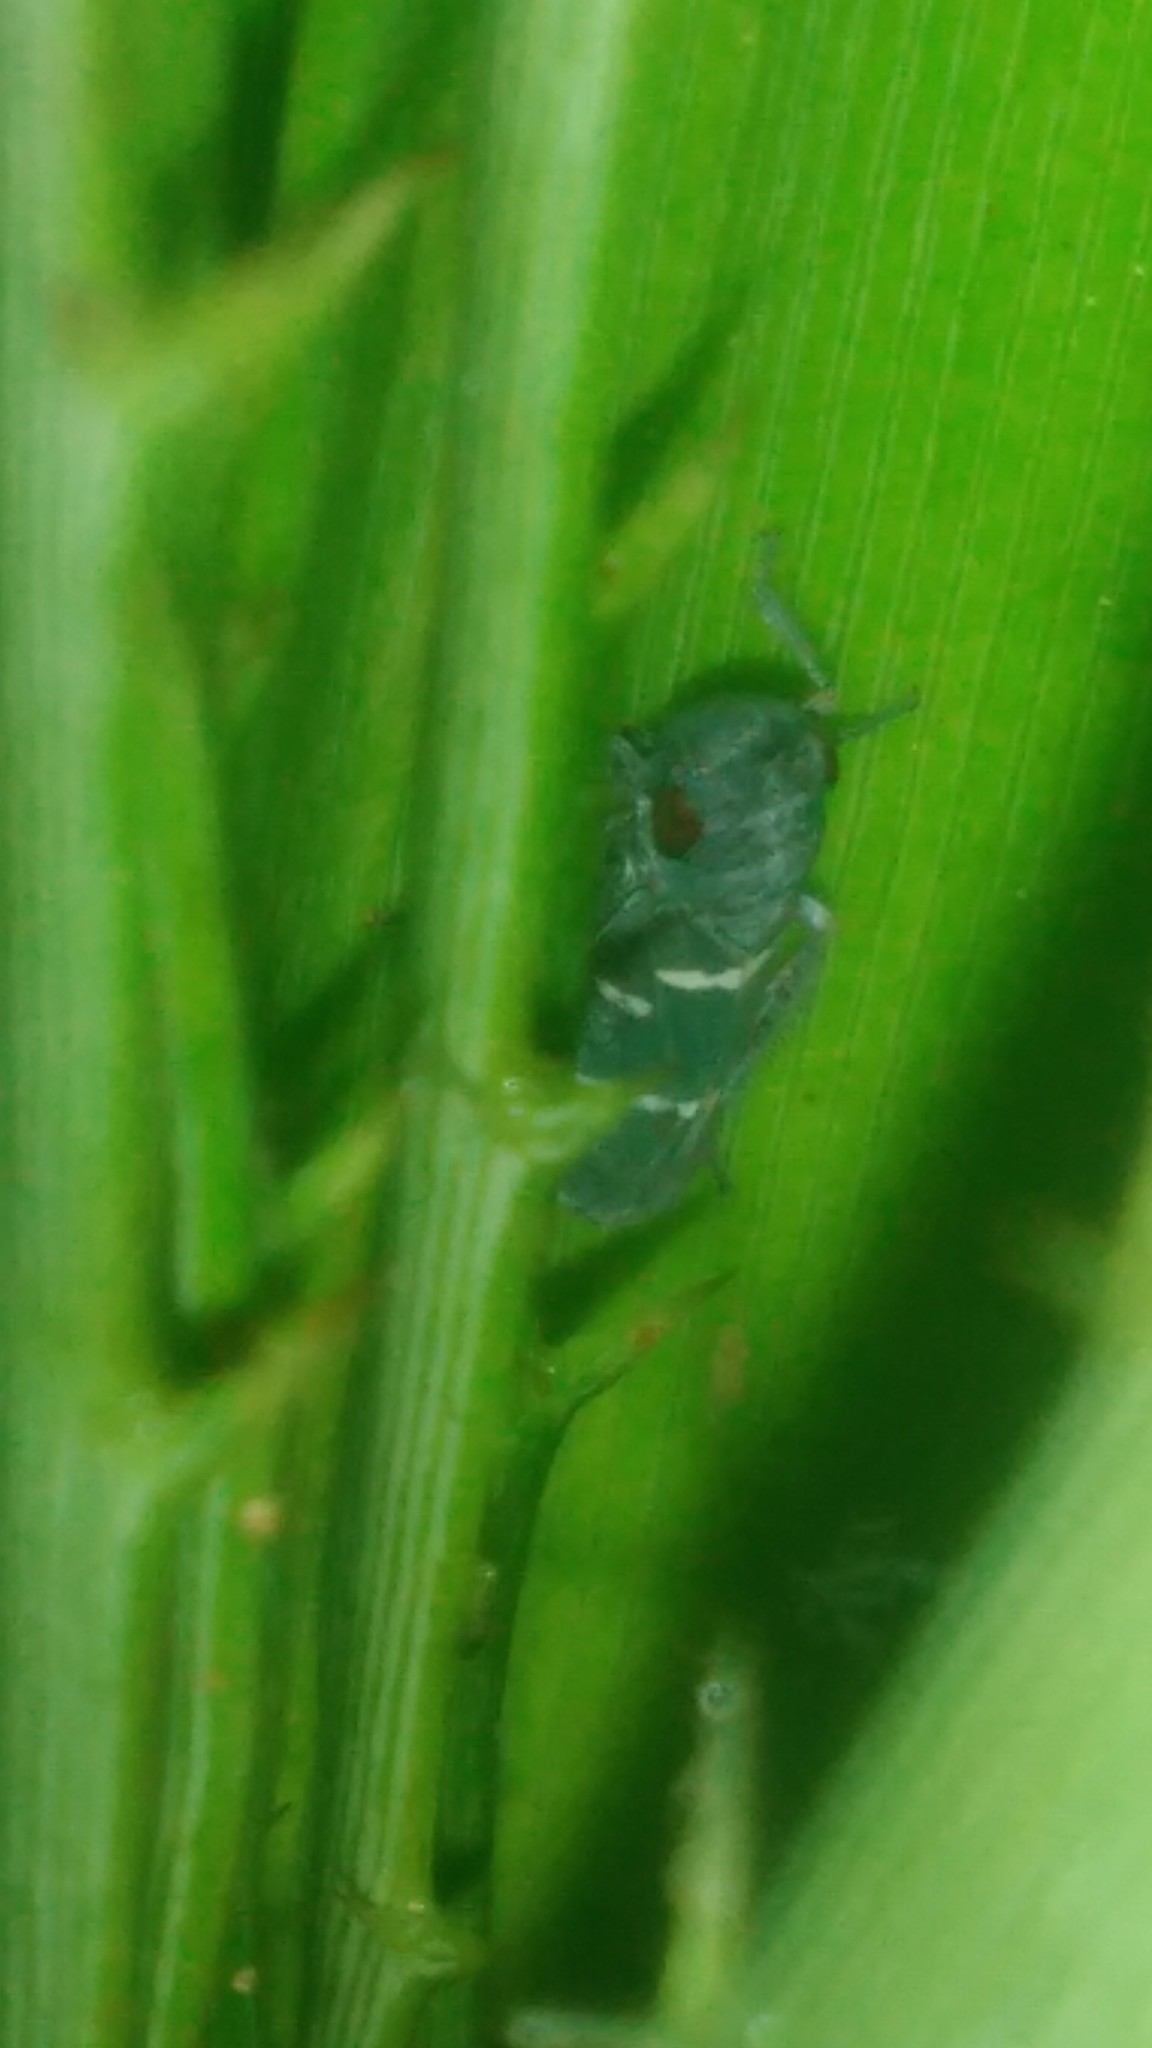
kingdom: Animalia
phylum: Arthropoda
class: Insecta
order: Hemiptera
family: Cicadellidae
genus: Balacha
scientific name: Balacha similis
